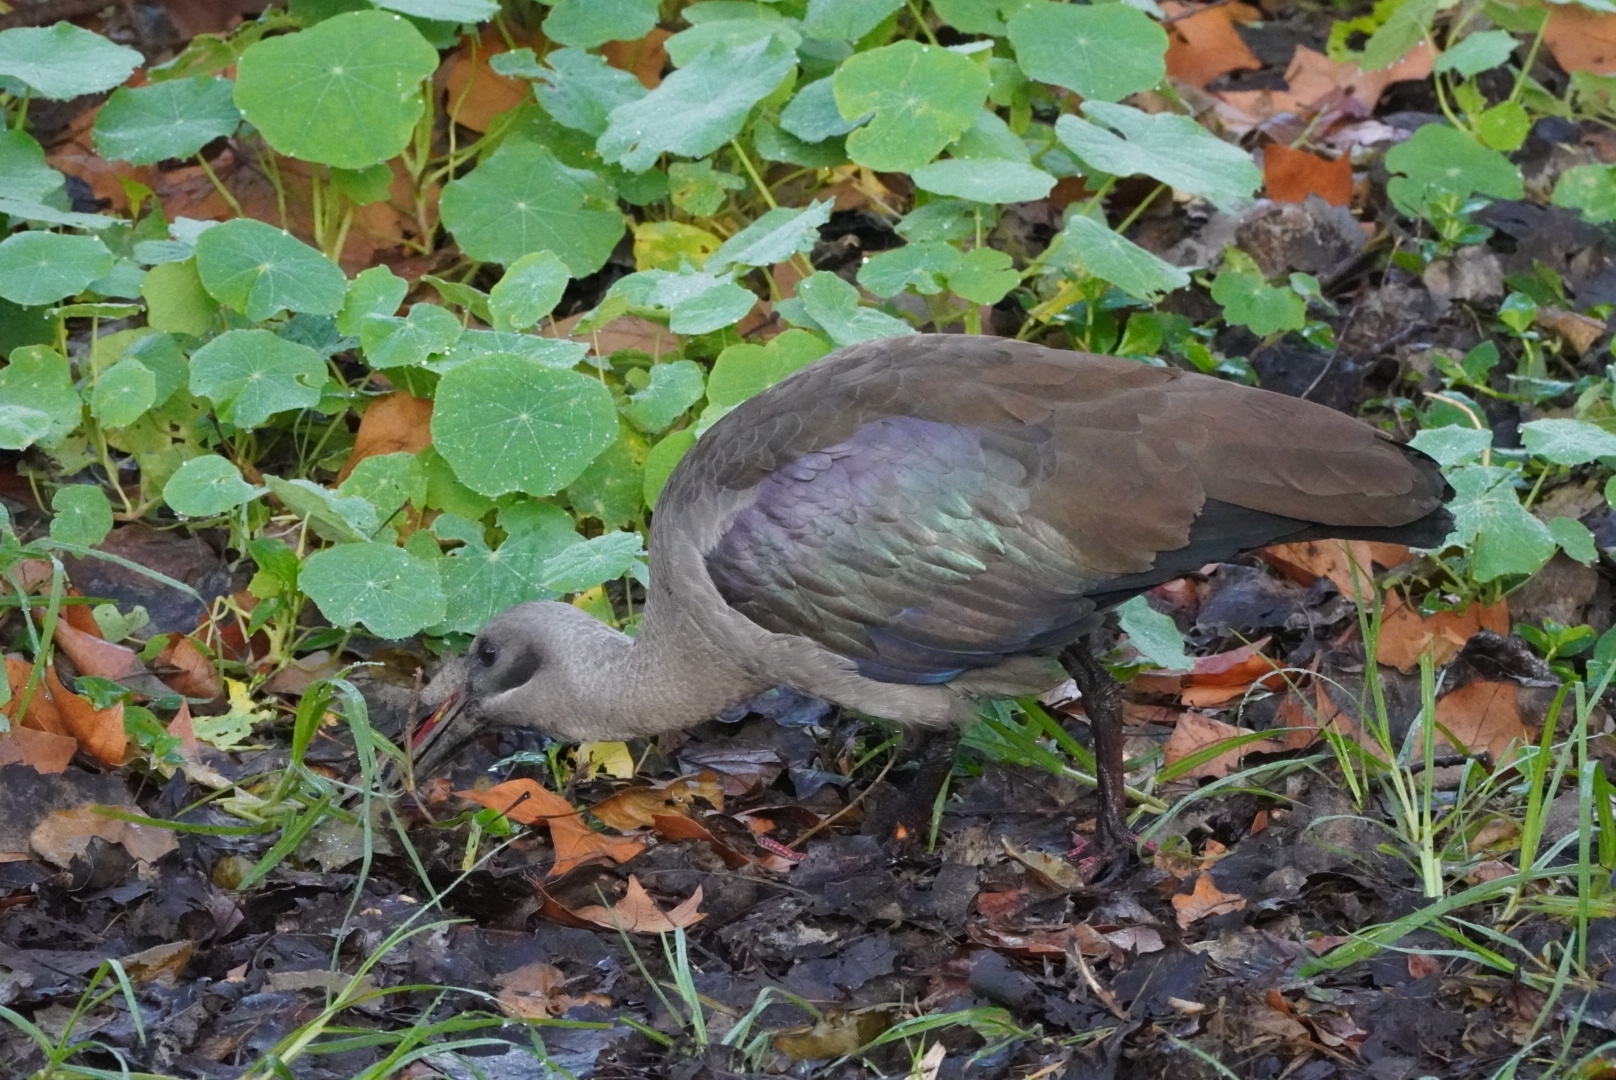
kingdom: Animalia
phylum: Chordata
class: Aves
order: Pelecaniformes
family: Threskiornithidae
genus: Bostrychia
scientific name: Bostrychia hagedash
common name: Hadada ibis
